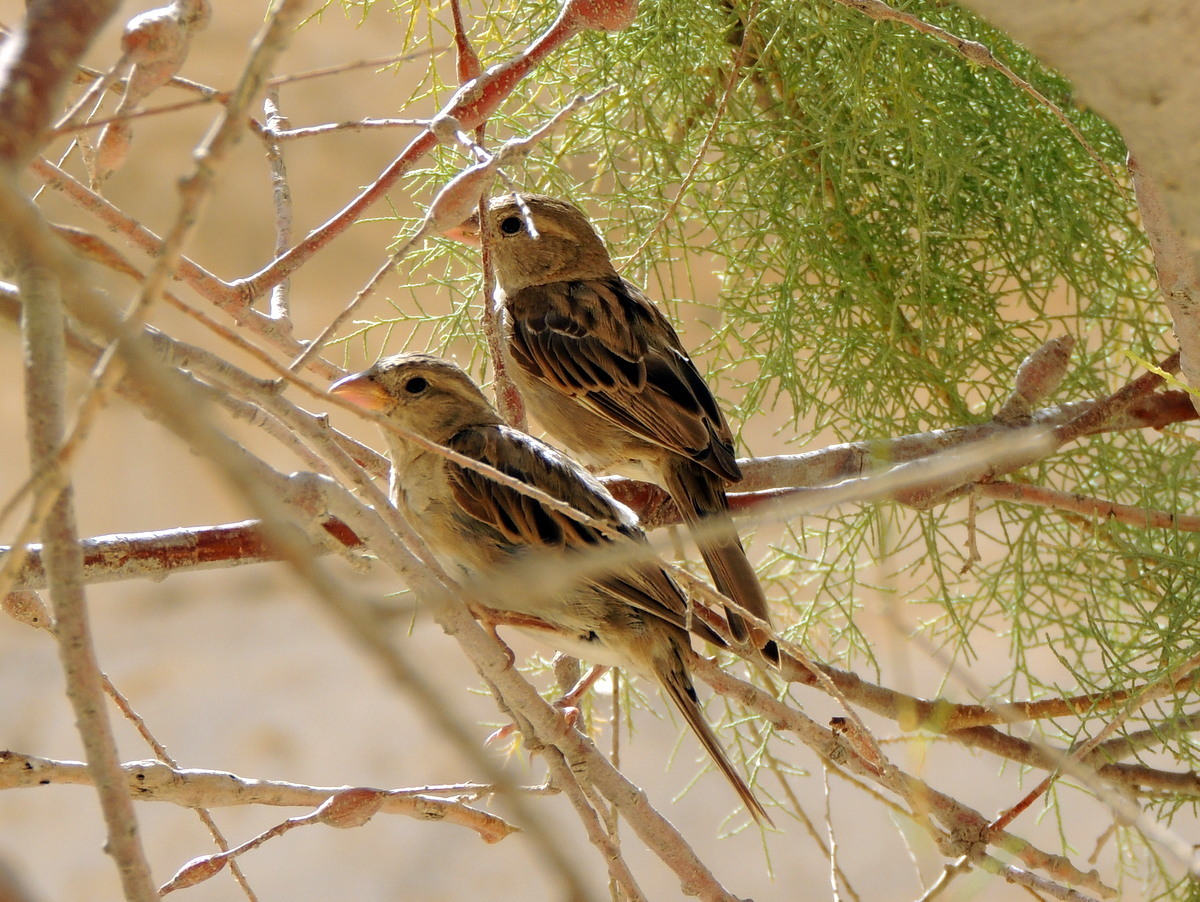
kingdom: Animalia
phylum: Chordata
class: Aves
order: Passeriformes
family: Passeridae
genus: Passer
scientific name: Passer domesticus
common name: House sparrow
